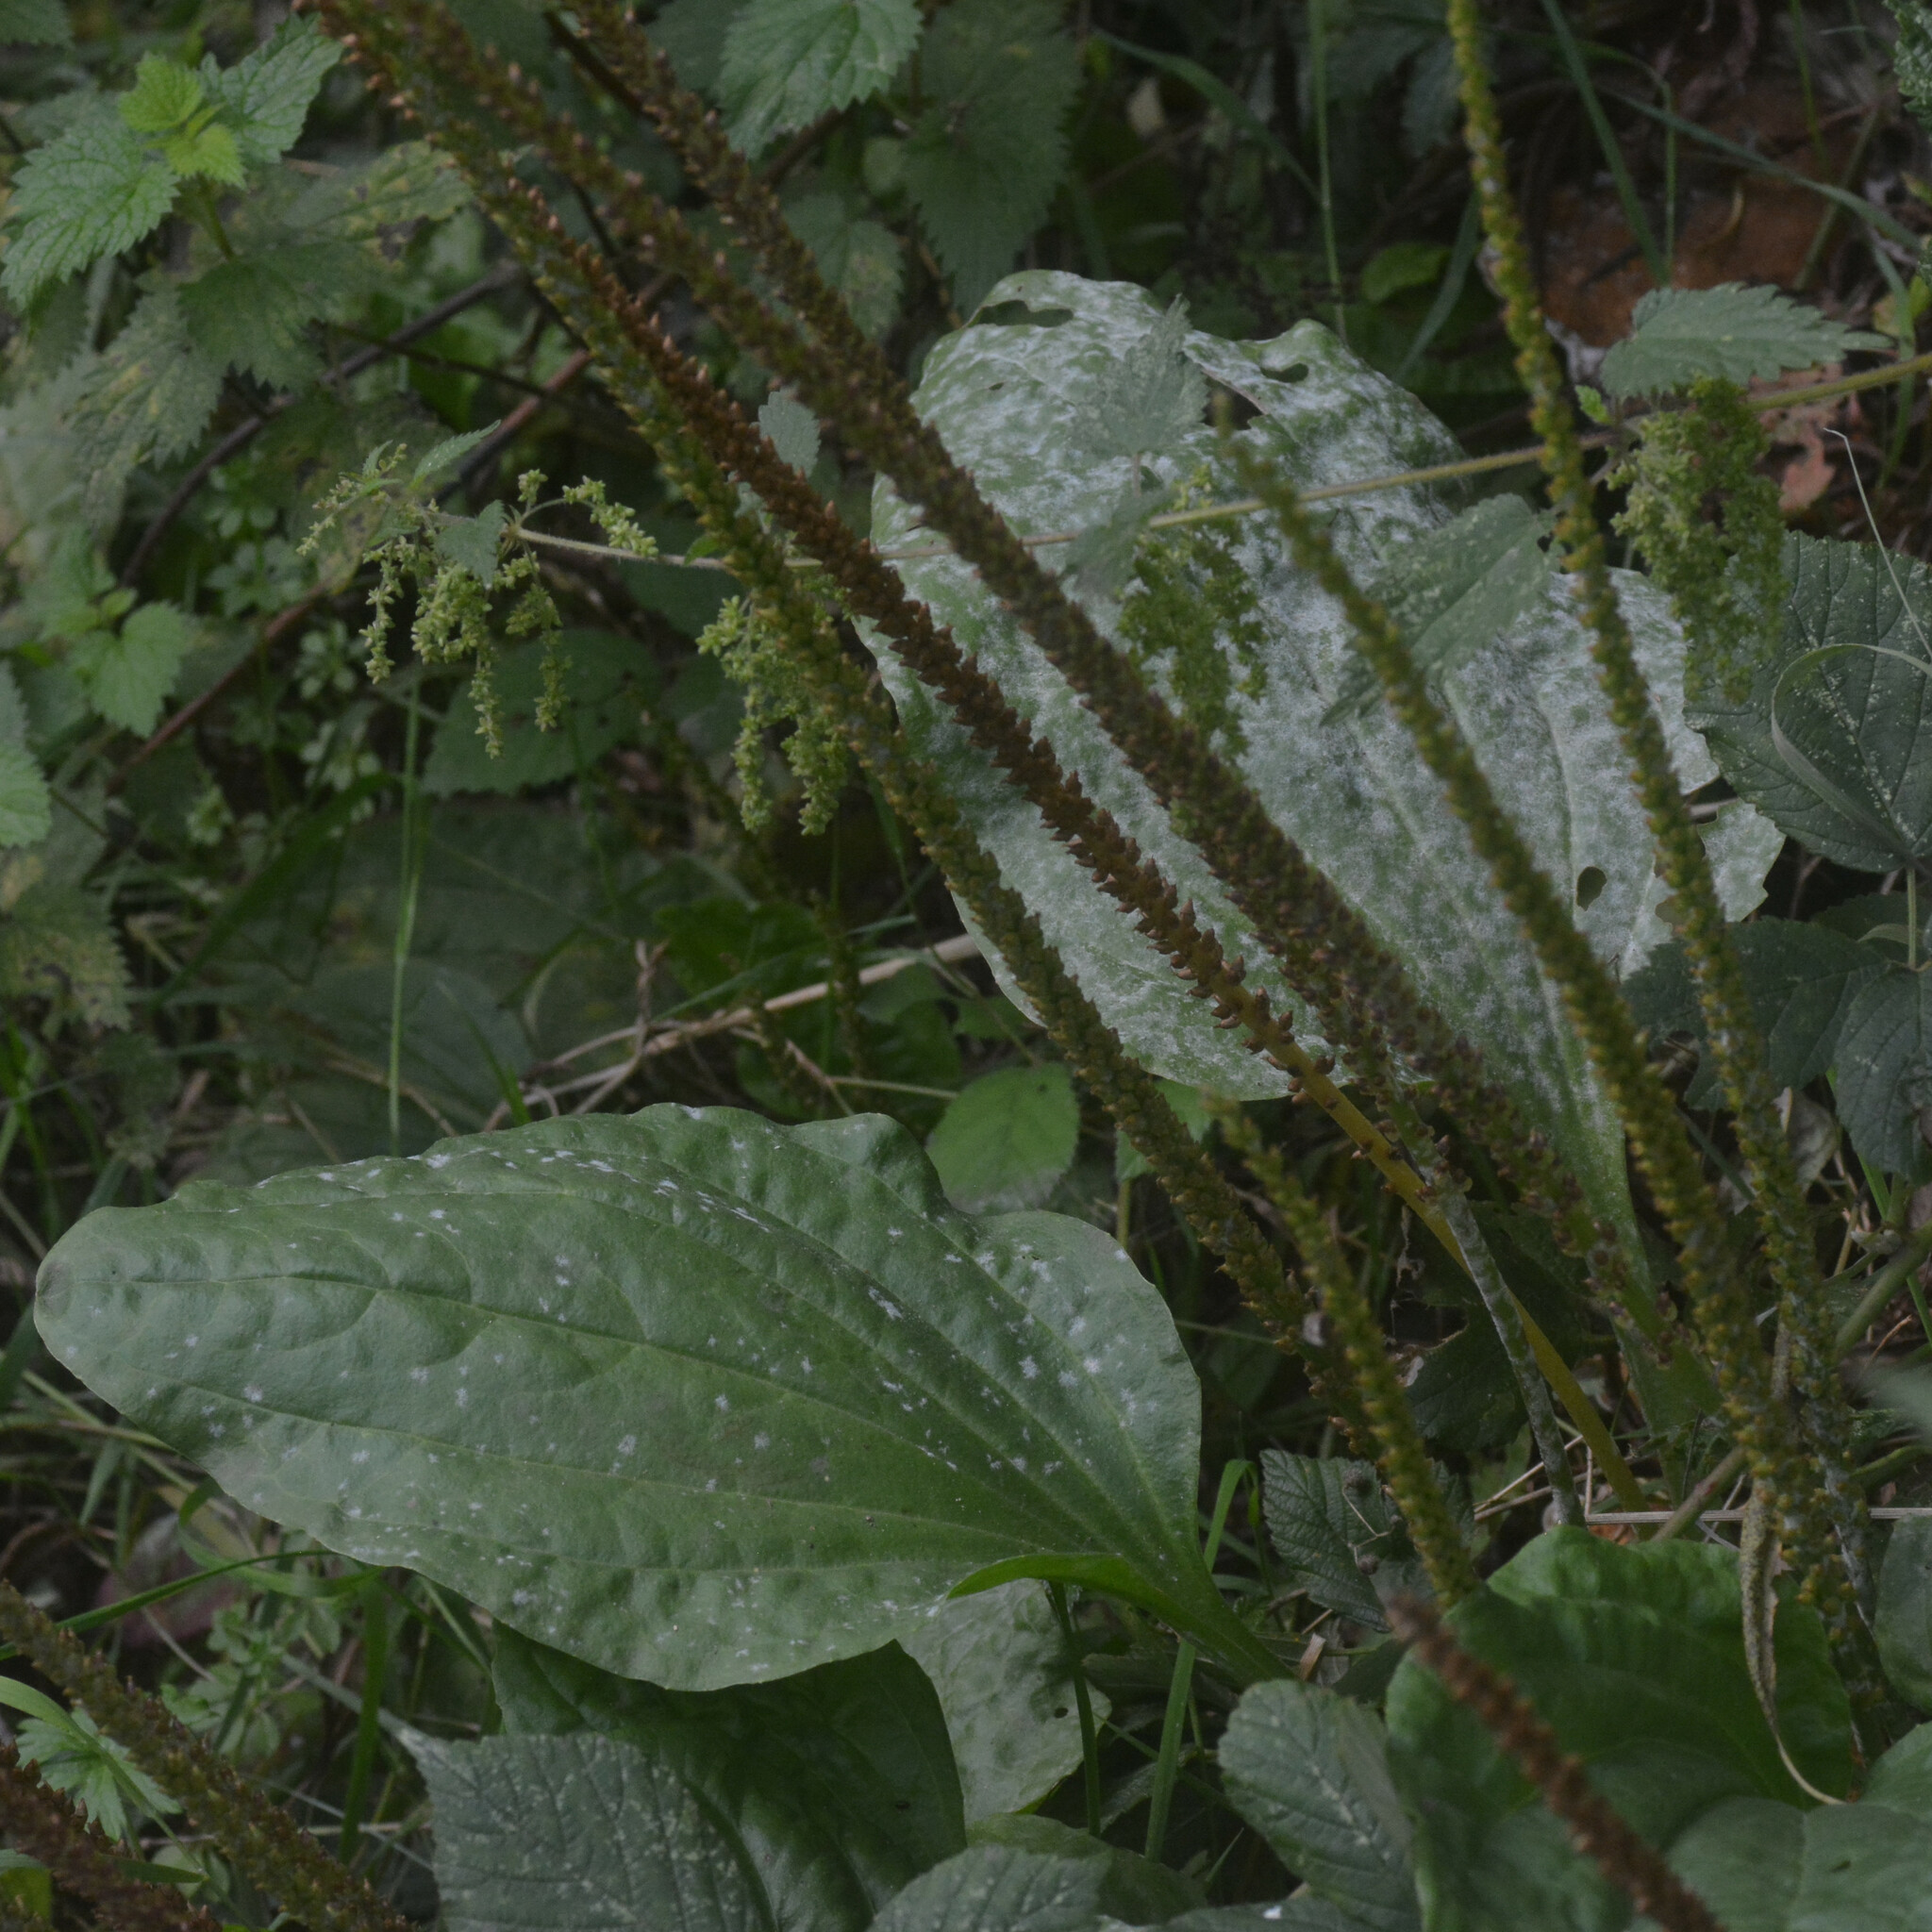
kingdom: Fungi
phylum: Ascomycota
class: Leotiomycetes
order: Helotiales
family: Erysiphaceae
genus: Golovinomyces
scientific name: Golovinomyces sordidus
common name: Plantain mildew
